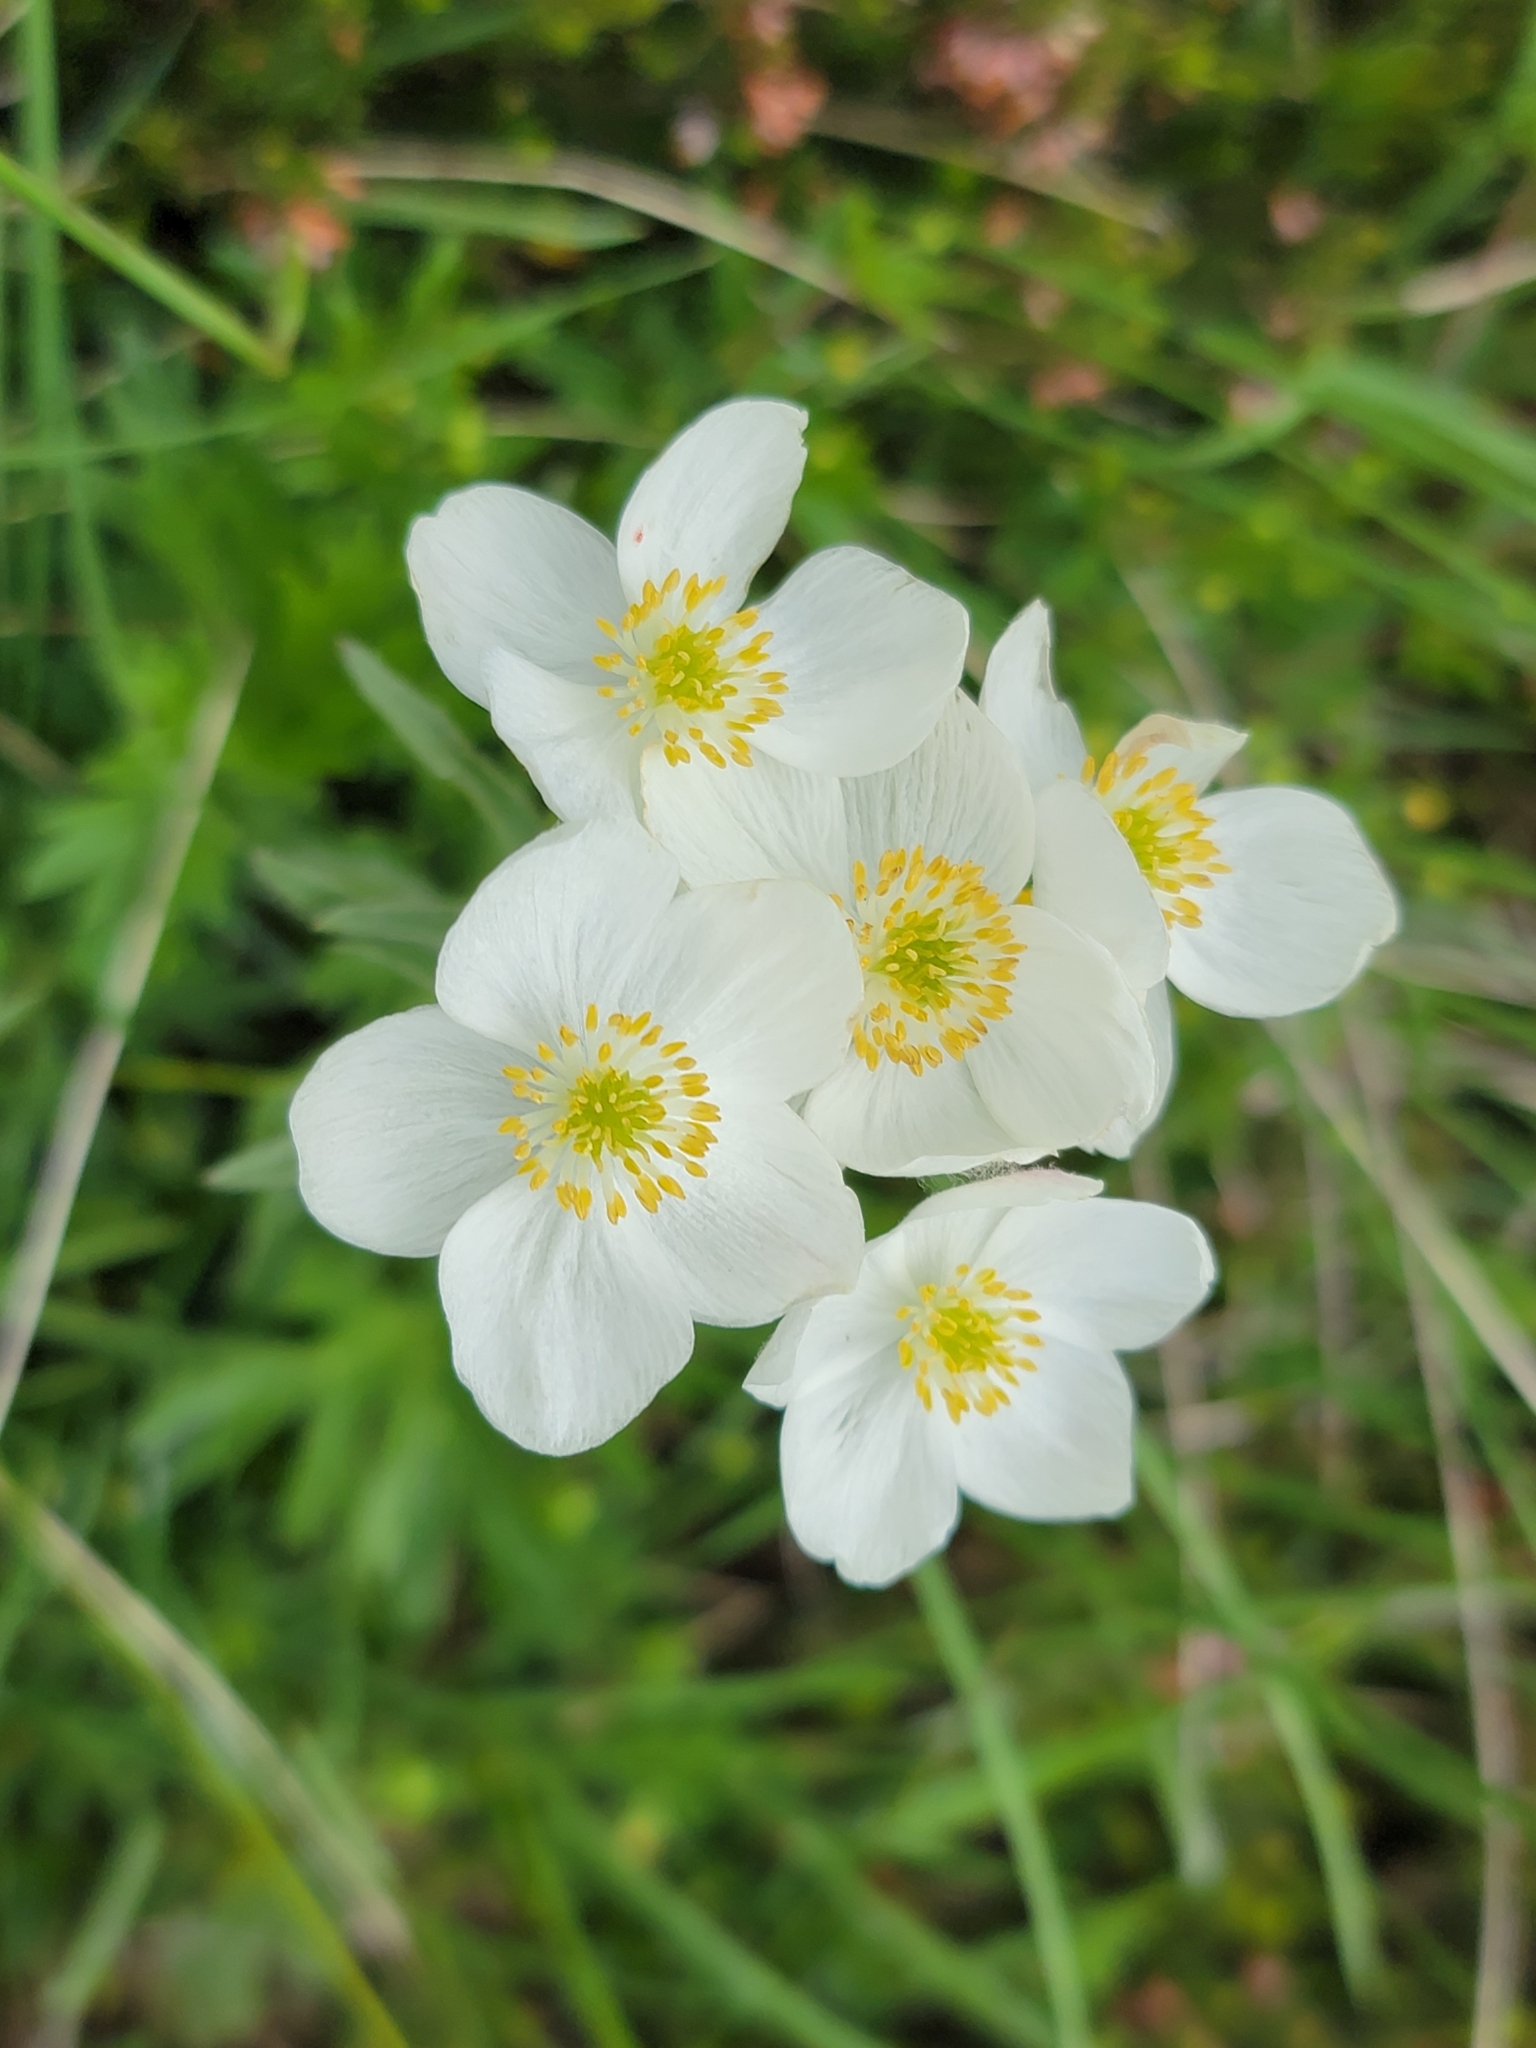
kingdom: Plantae
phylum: Tracheophyta
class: Magnoliopsida
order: Ranunculales
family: Ranunculaceae
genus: Anemonastrum
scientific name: Anemonastrum narcissiflorum
